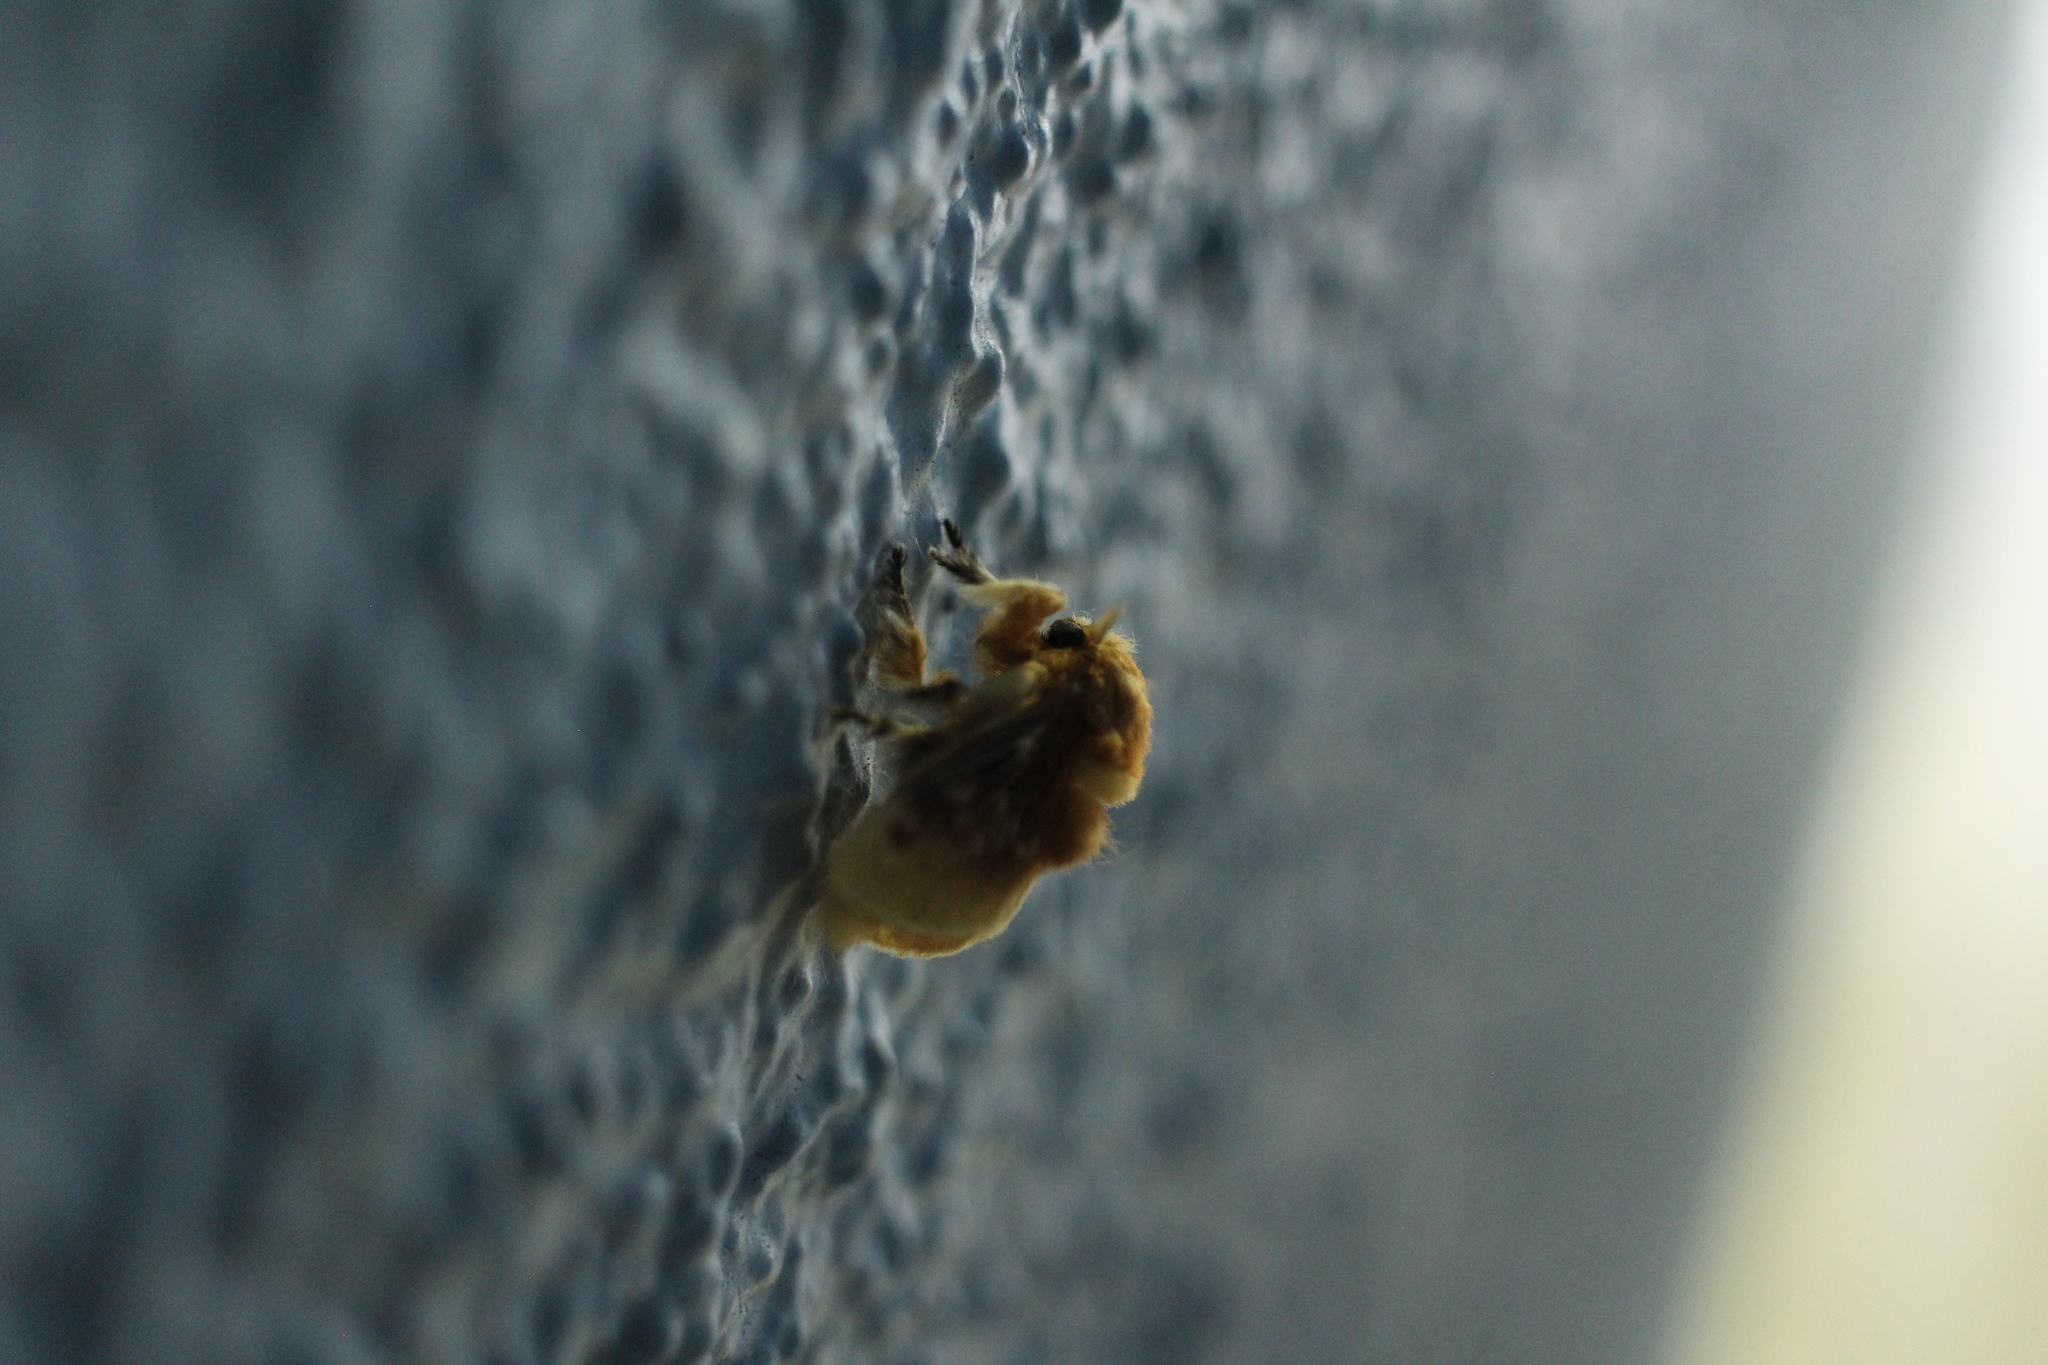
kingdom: Animalia
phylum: Arthropoda
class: Insecta
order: Lepidoptera
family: Megalopygidae
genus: Megalopyge
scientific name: Megalopyge opercularis
